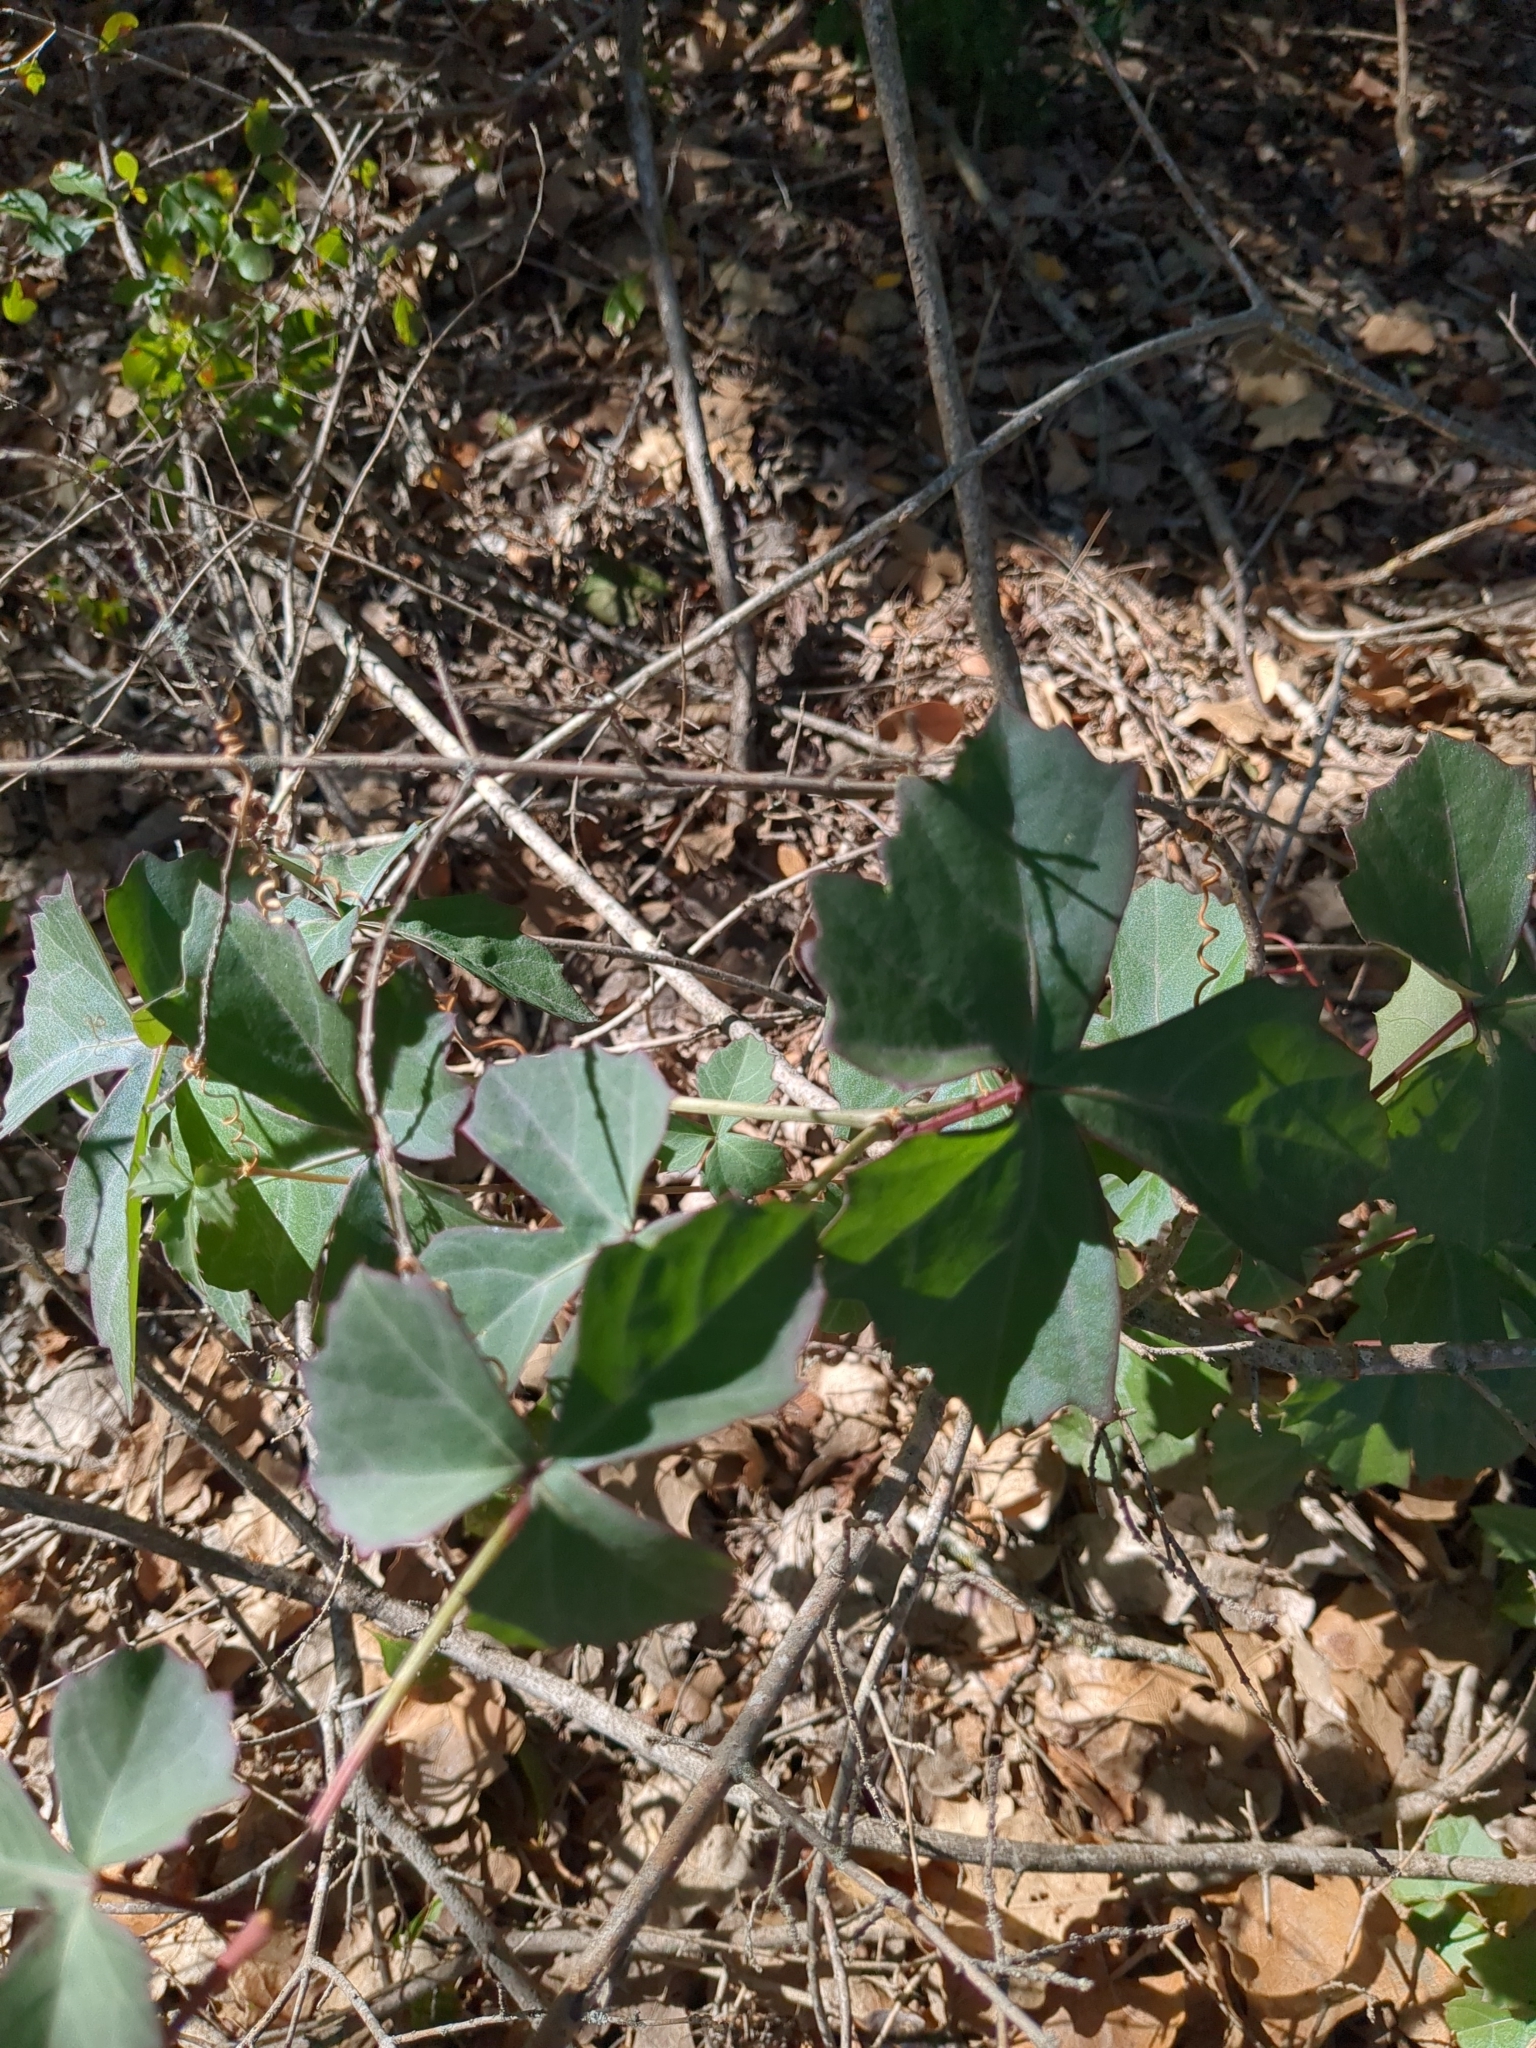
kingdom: Plantae
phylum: Tracheophyta
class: Magnoliopsida
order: Vitales
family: Vitaceae
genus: Cissus
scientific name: Cissus trifoliata
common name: Vine-sorrel
